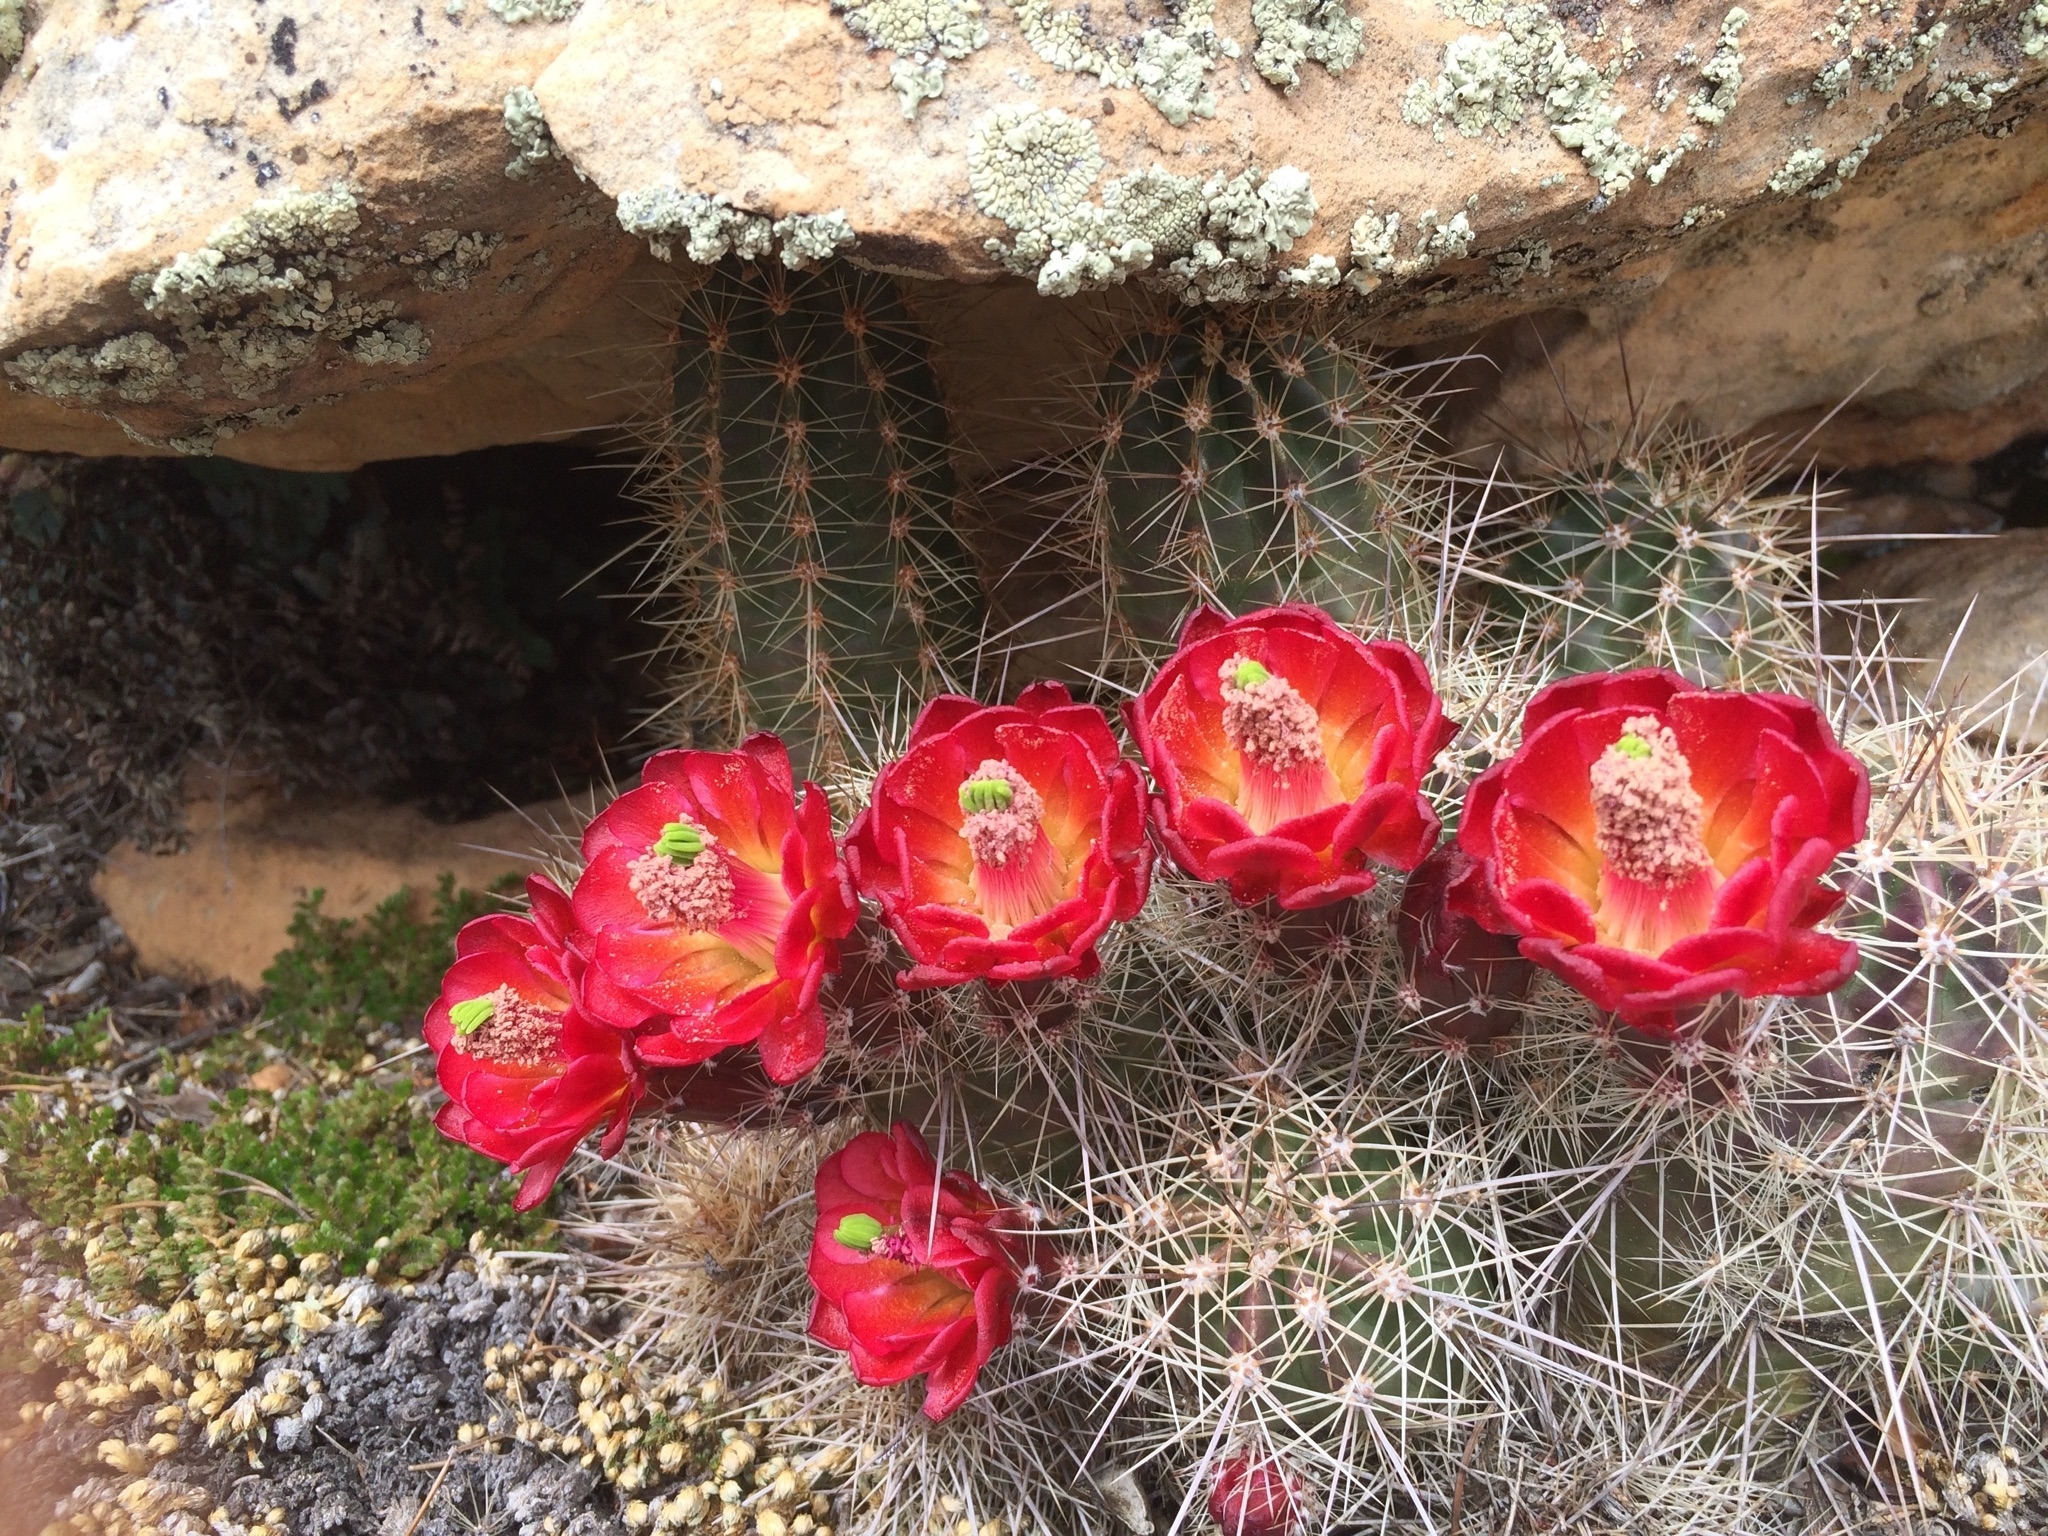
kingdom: Plantae
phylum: Tracheophyta
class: Magnoliopsida
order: Caryophyllales
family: Cactaceae
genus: Echinocereus
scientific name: Echinocereus bakeri
